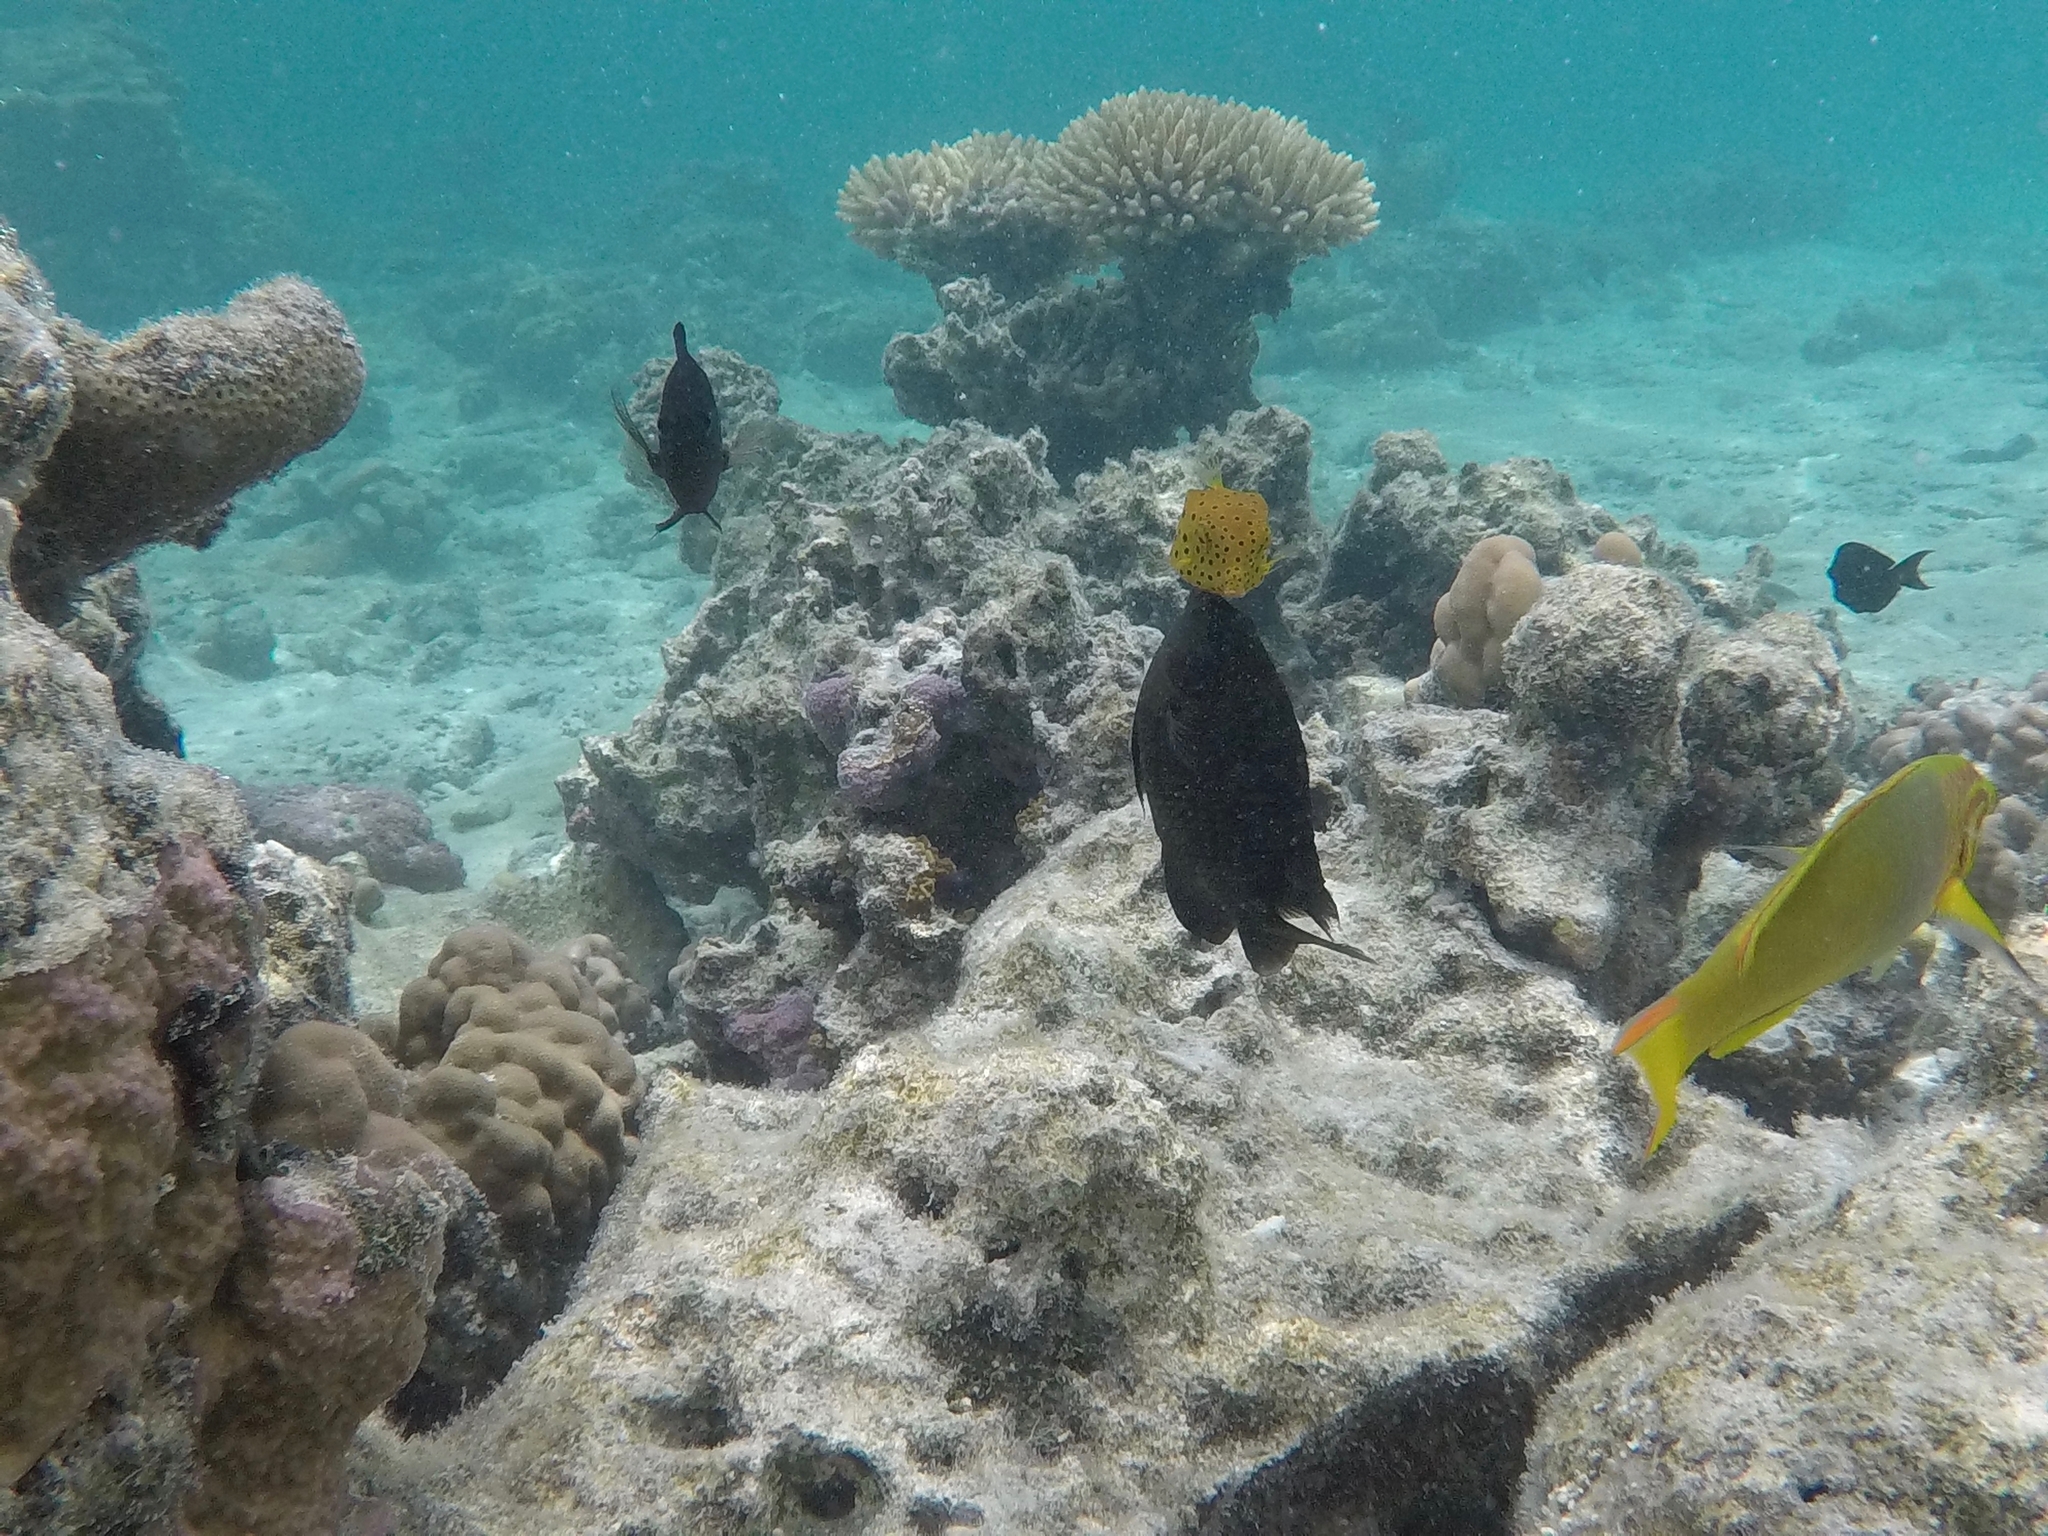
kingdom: Animalia
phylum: Chordata
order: Tetraodontiformes
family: Ostraciidae
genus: Ostracion
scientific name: Ostracion cubicus
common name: Cube trunkfish
